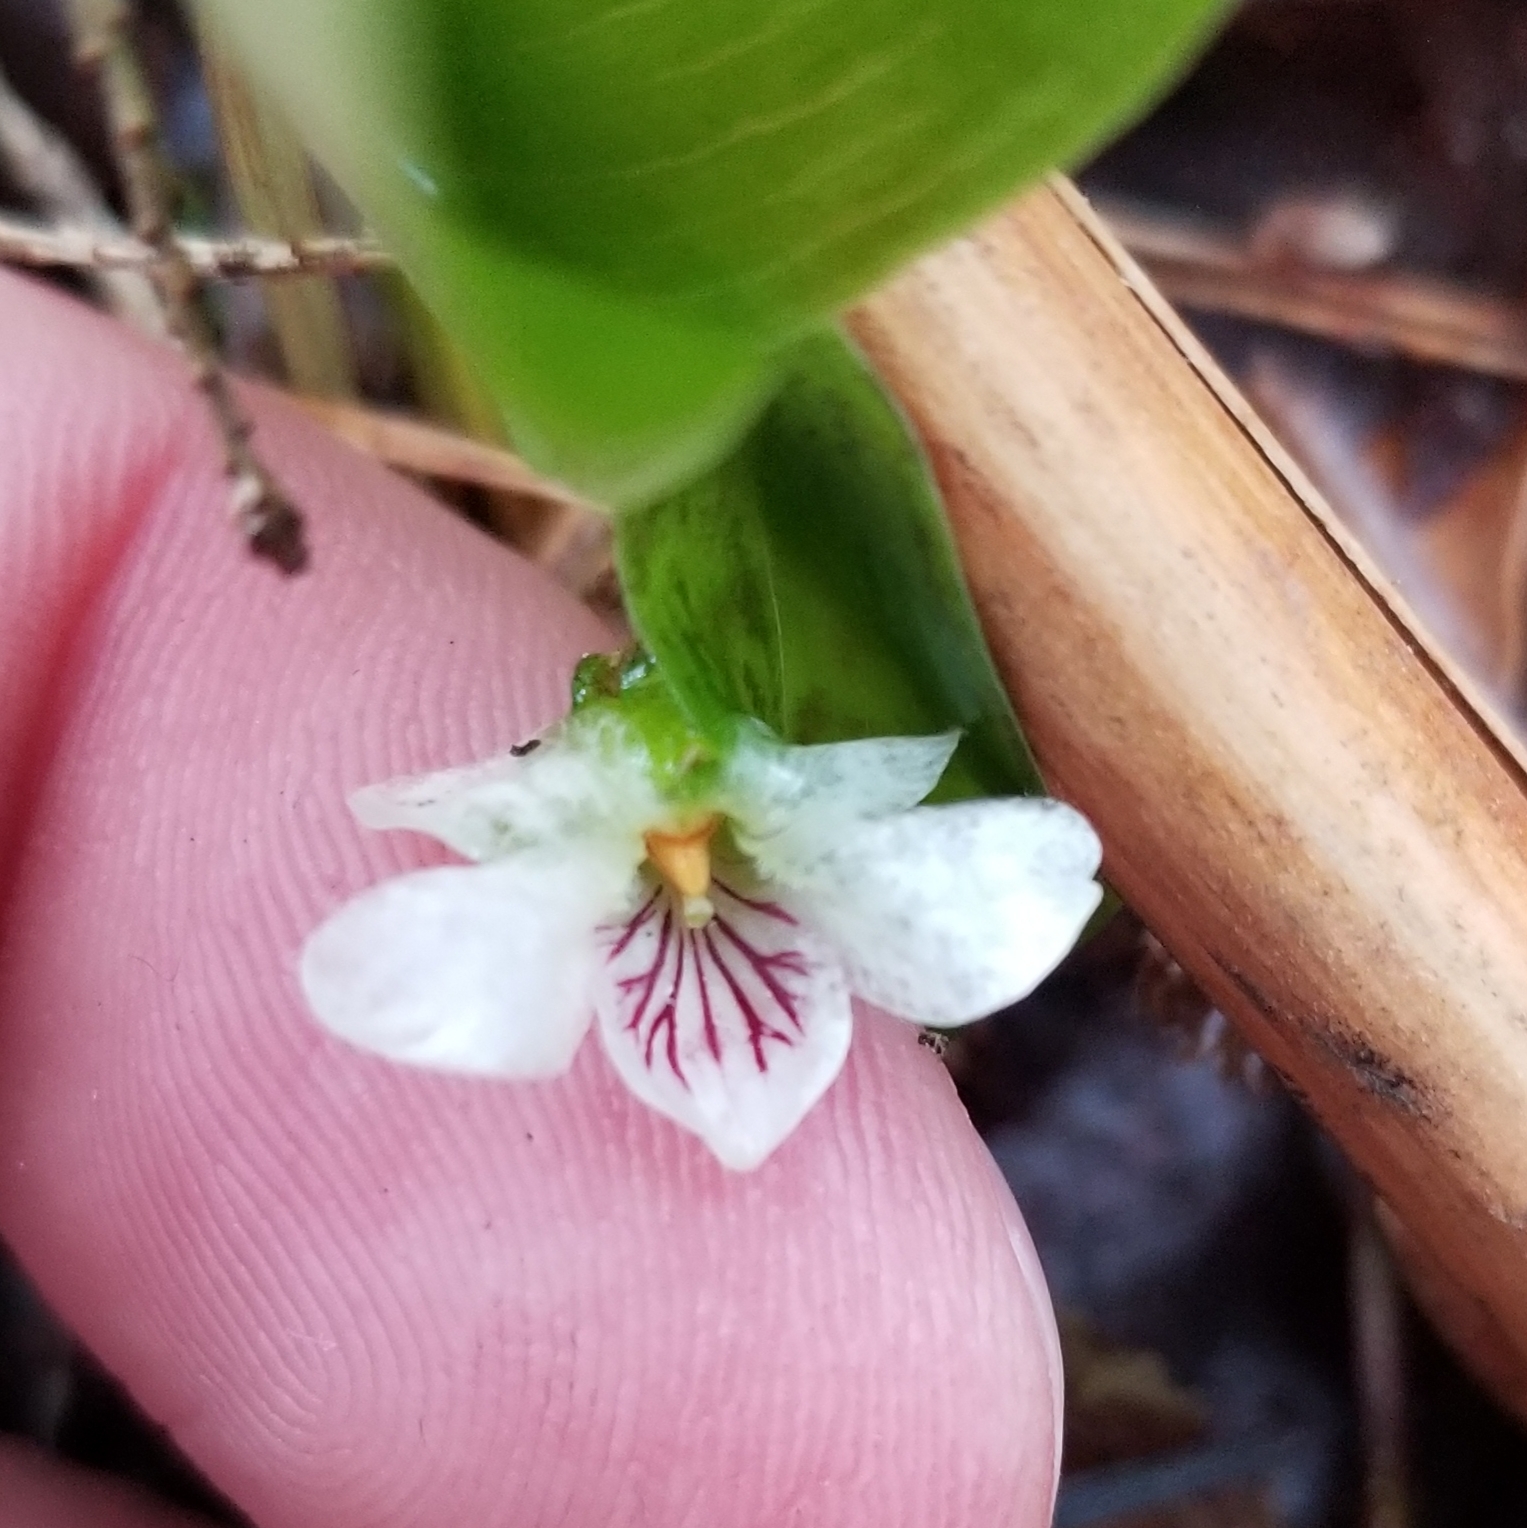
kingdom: Plantae
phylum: Tracheophyta
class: Magnoliopsida
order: Malpighiales
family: Violaceae
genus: Viola
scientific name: Viola minuscula
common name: Northern white violet
